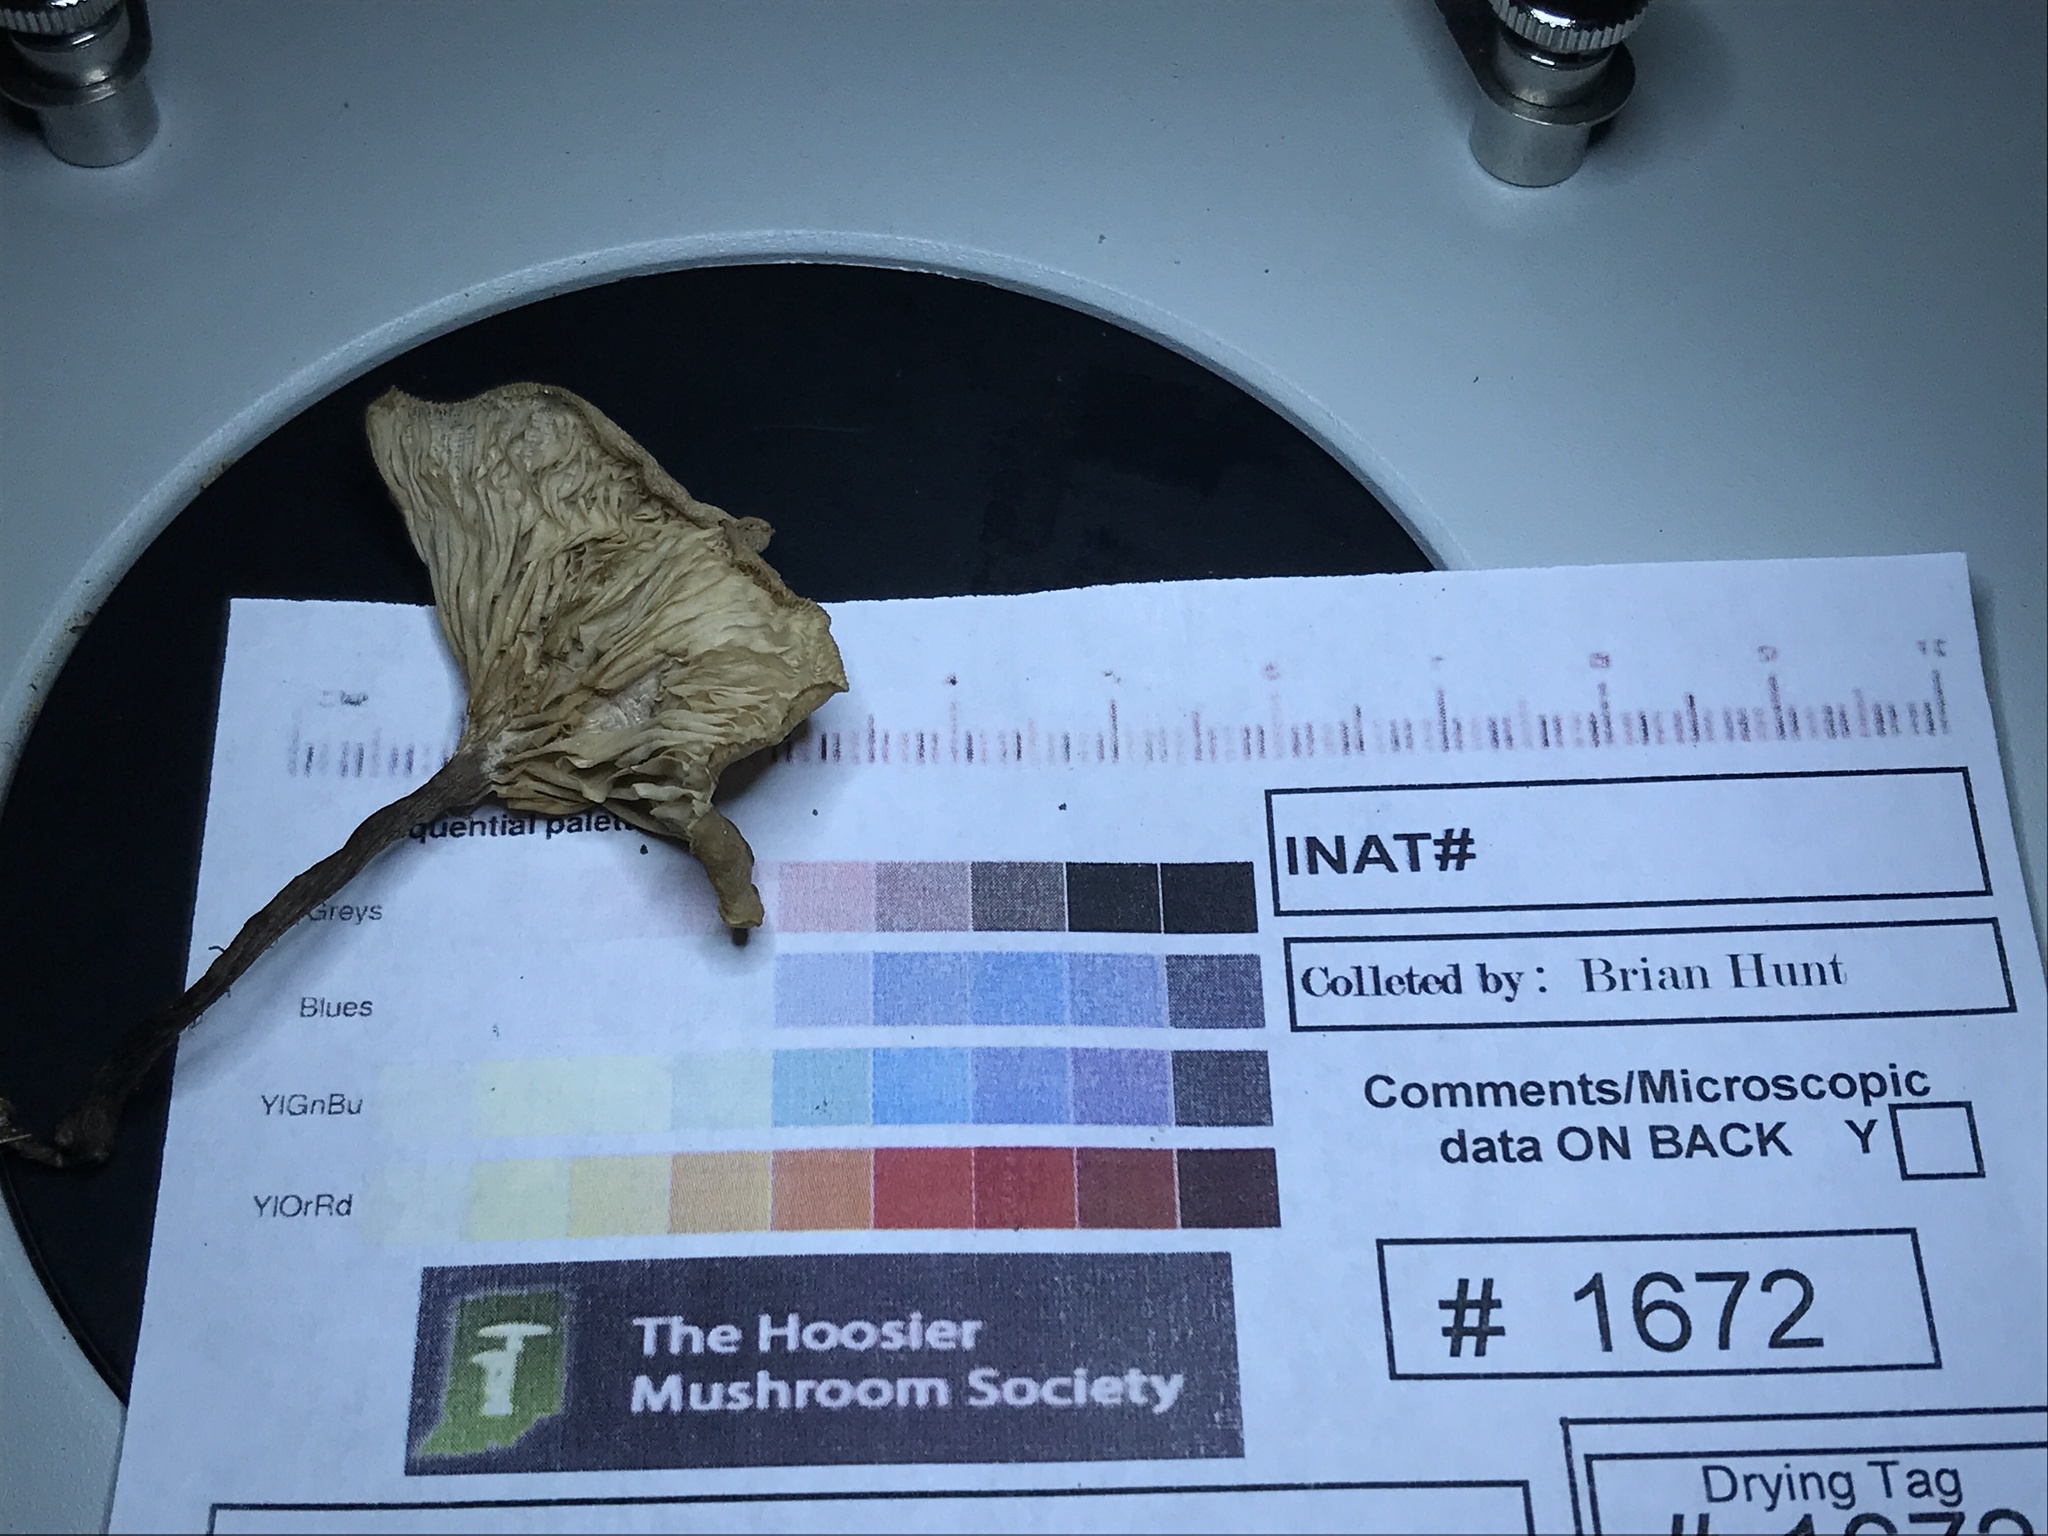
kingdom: Fungi
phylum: Basidiomycota
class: Agaricomycetes
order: Agaricales
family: Tricholomataceae
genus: Collybia
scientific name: Collybia
